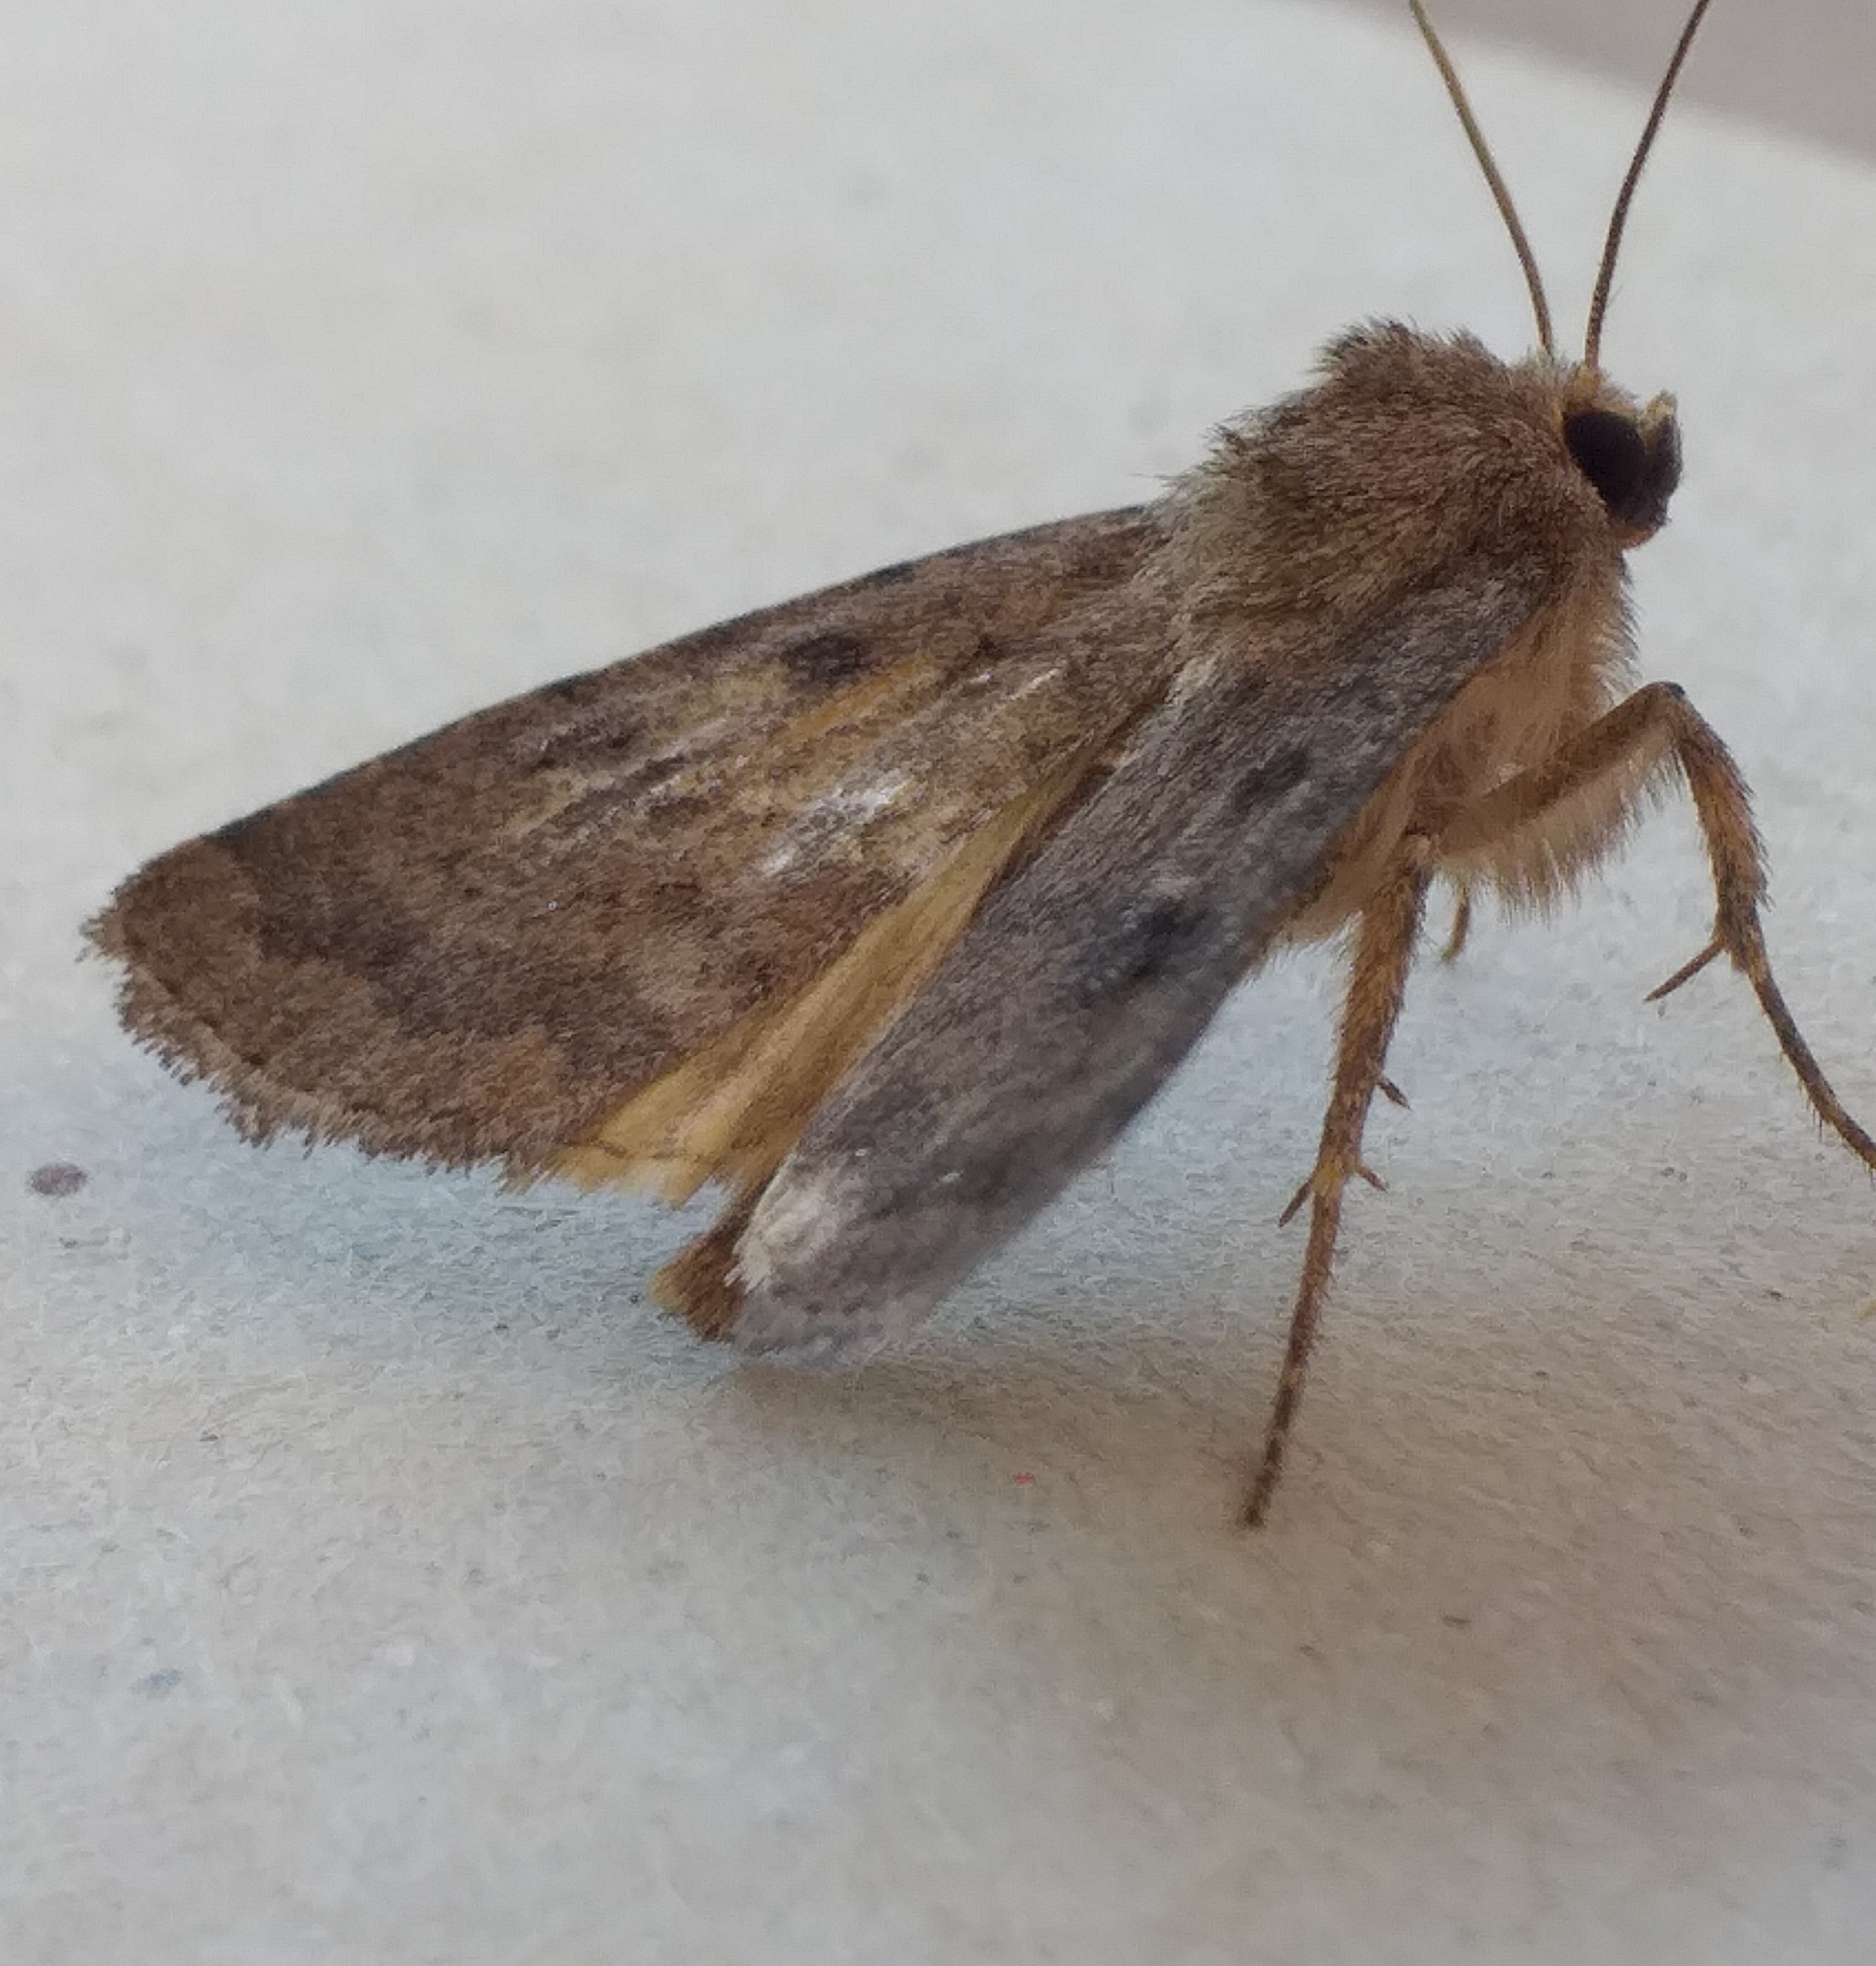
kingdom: Animalia
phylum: Arthropoda
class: Insecta
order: Lepidoptera
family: Noctuidae
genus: Caradrina
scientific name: Caradrina morpheus
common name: Mottled rustic
